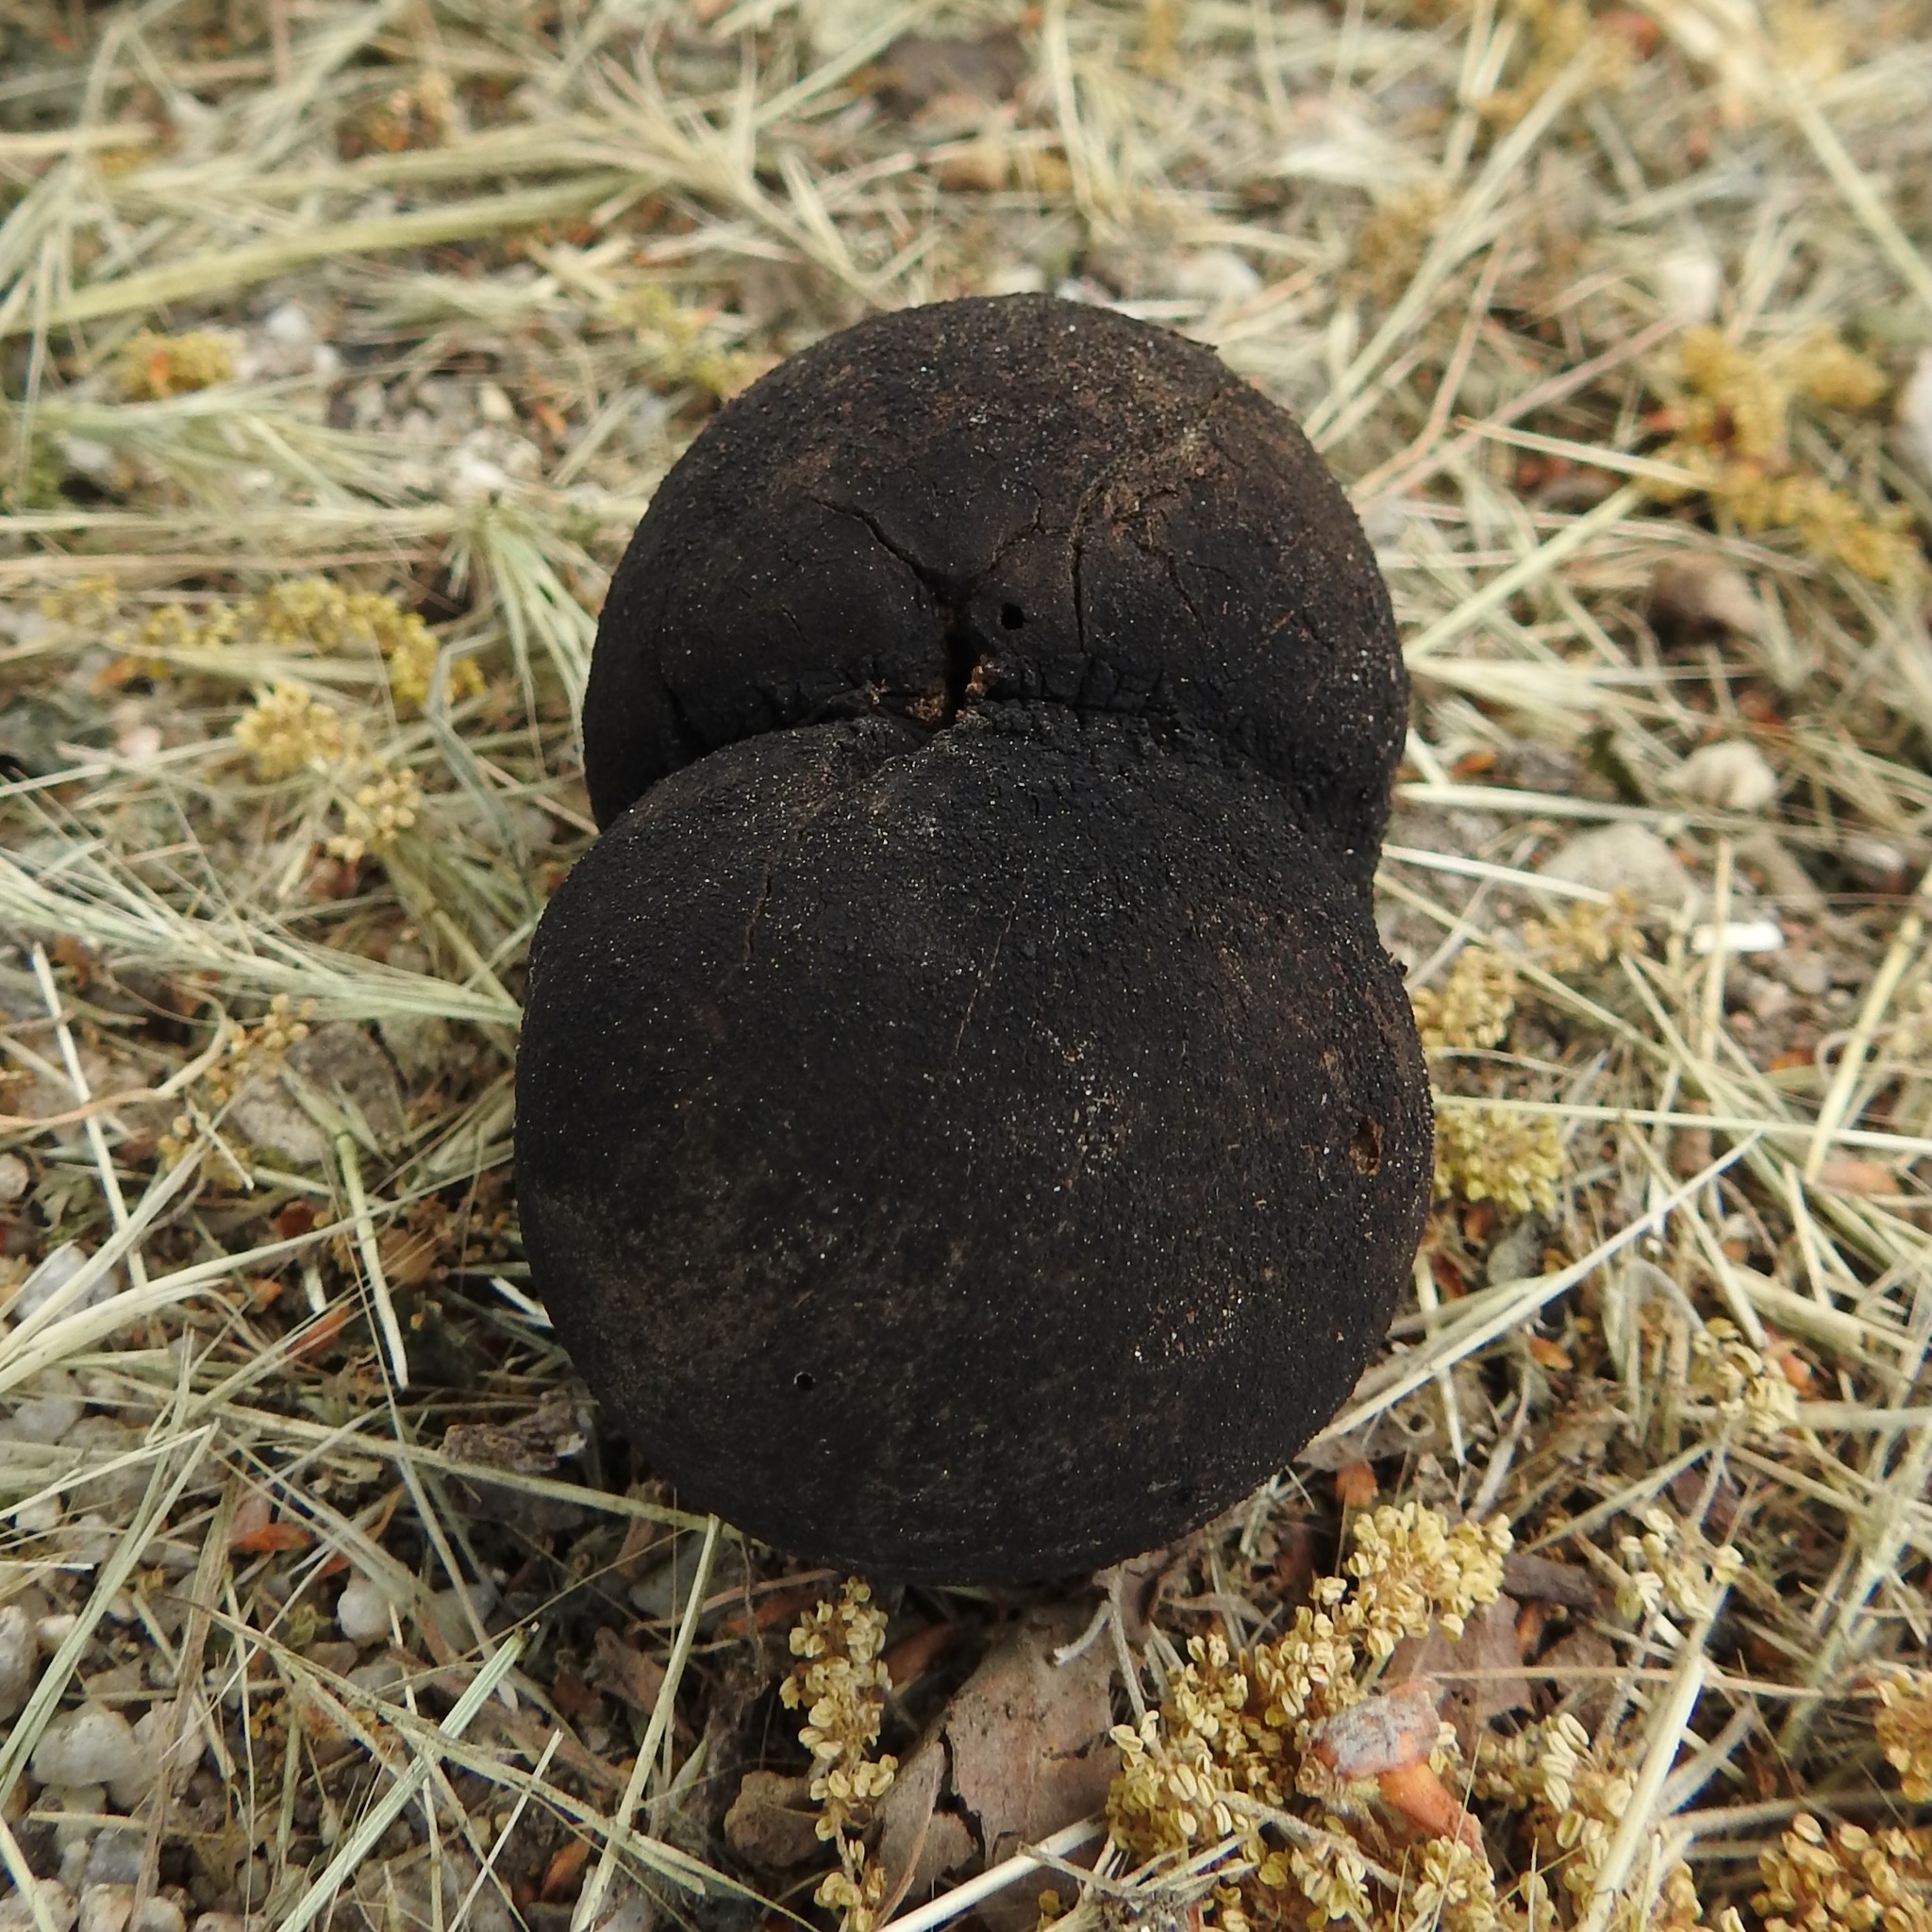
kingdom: Animalia
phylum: Arthropoda
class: Insecta
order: Hymenoptera
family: Cynipidae
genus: Andricus
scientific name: Andricus quercuscalifornicus
